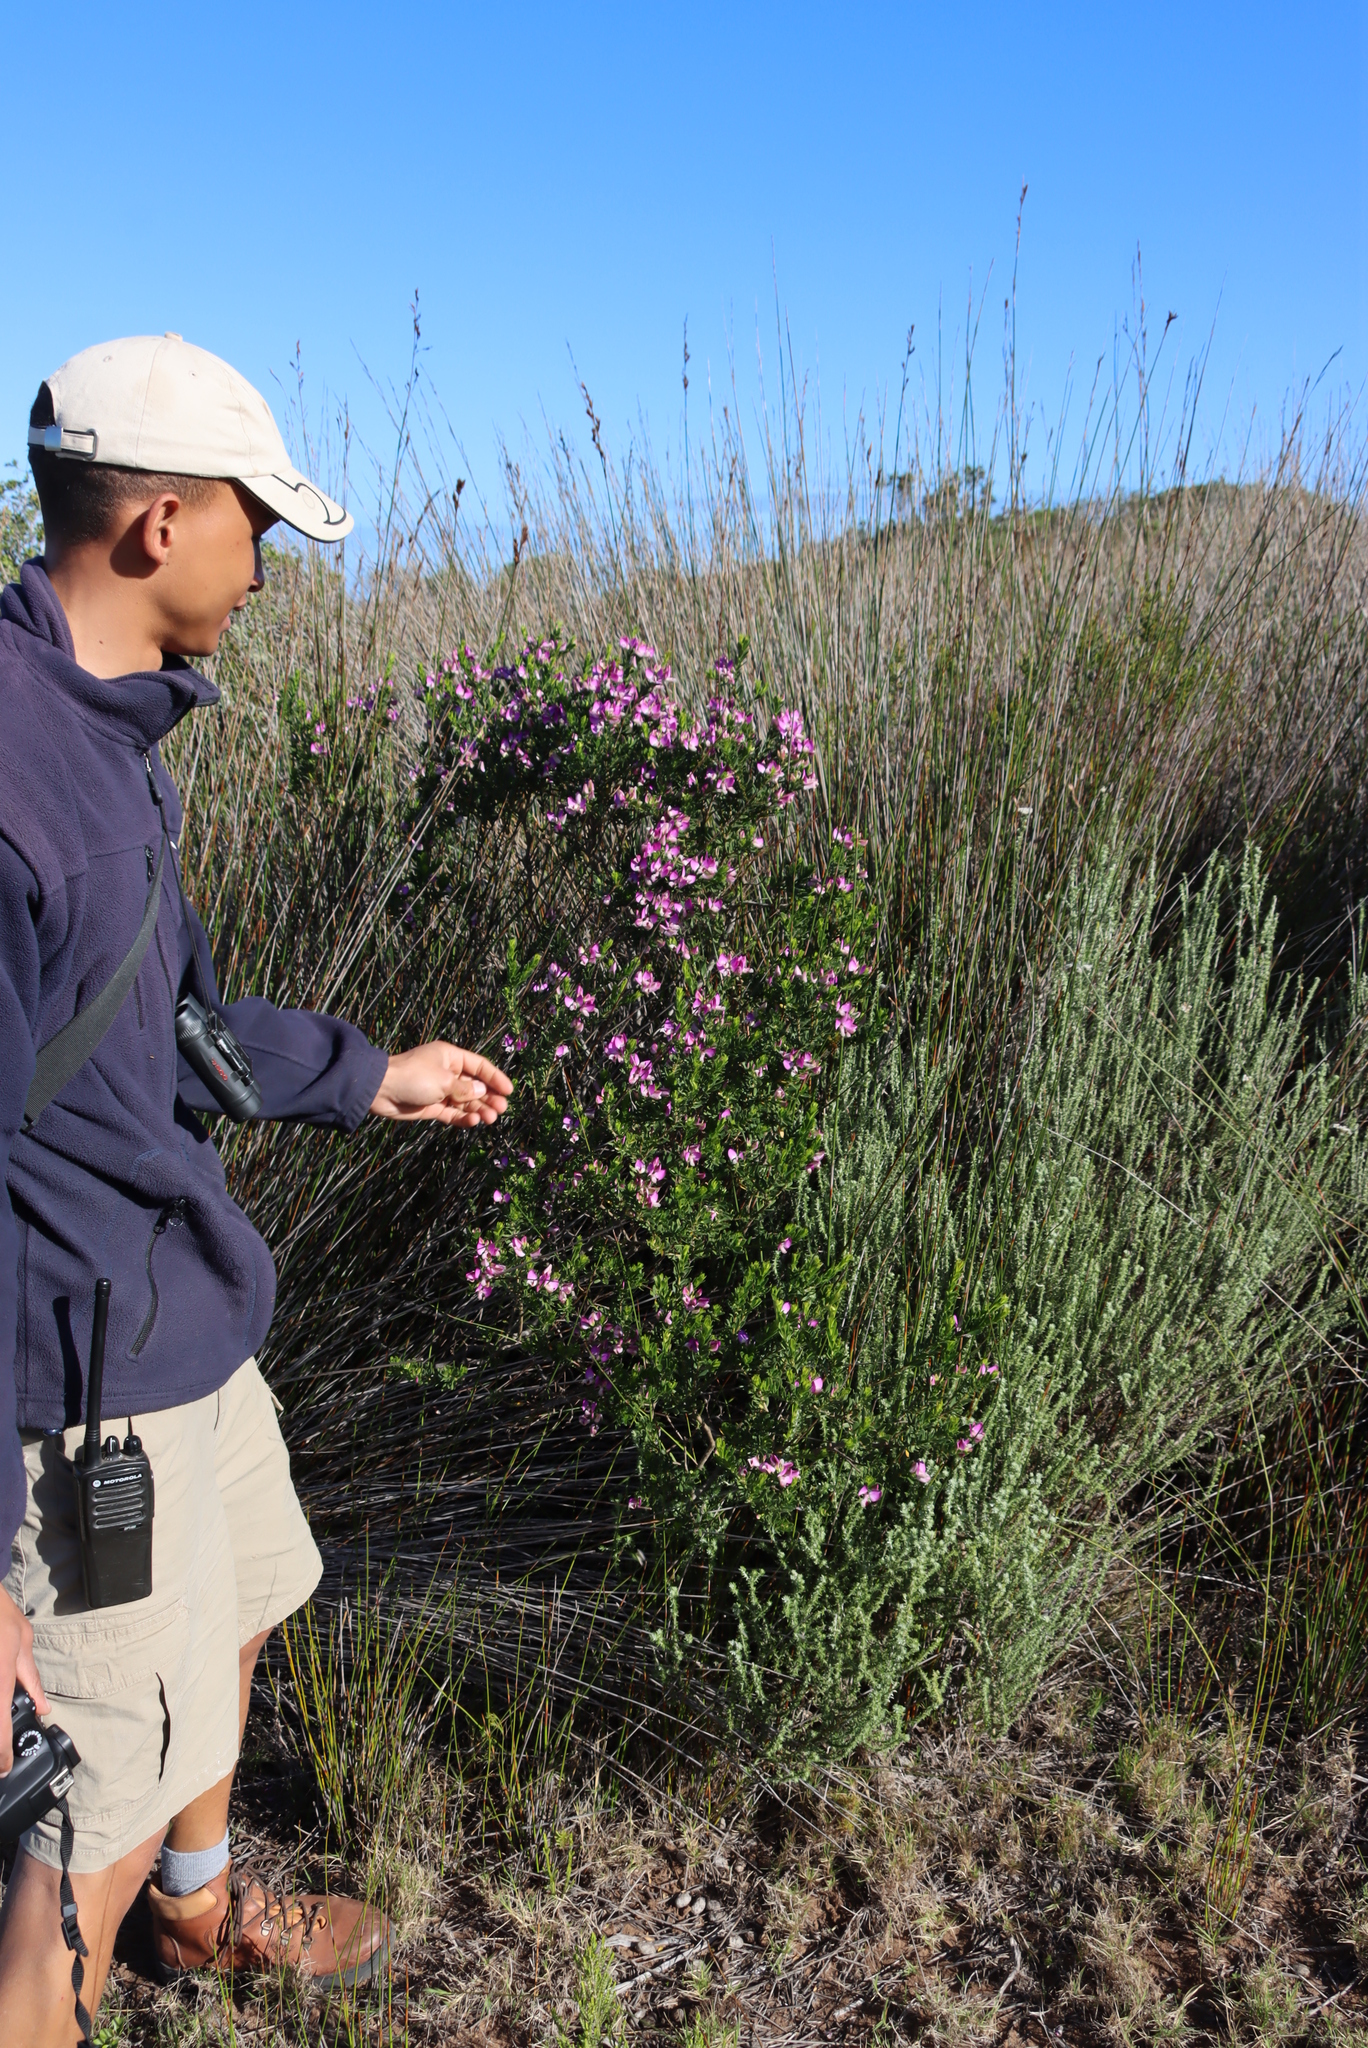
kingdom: Plantae
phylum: Tracheophyta
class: Magnoliopsida
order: Fabales
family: Polygalaceae
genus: Polygala
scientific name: Polygala myrtifolia
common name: Myrtle-leaf milkwort
